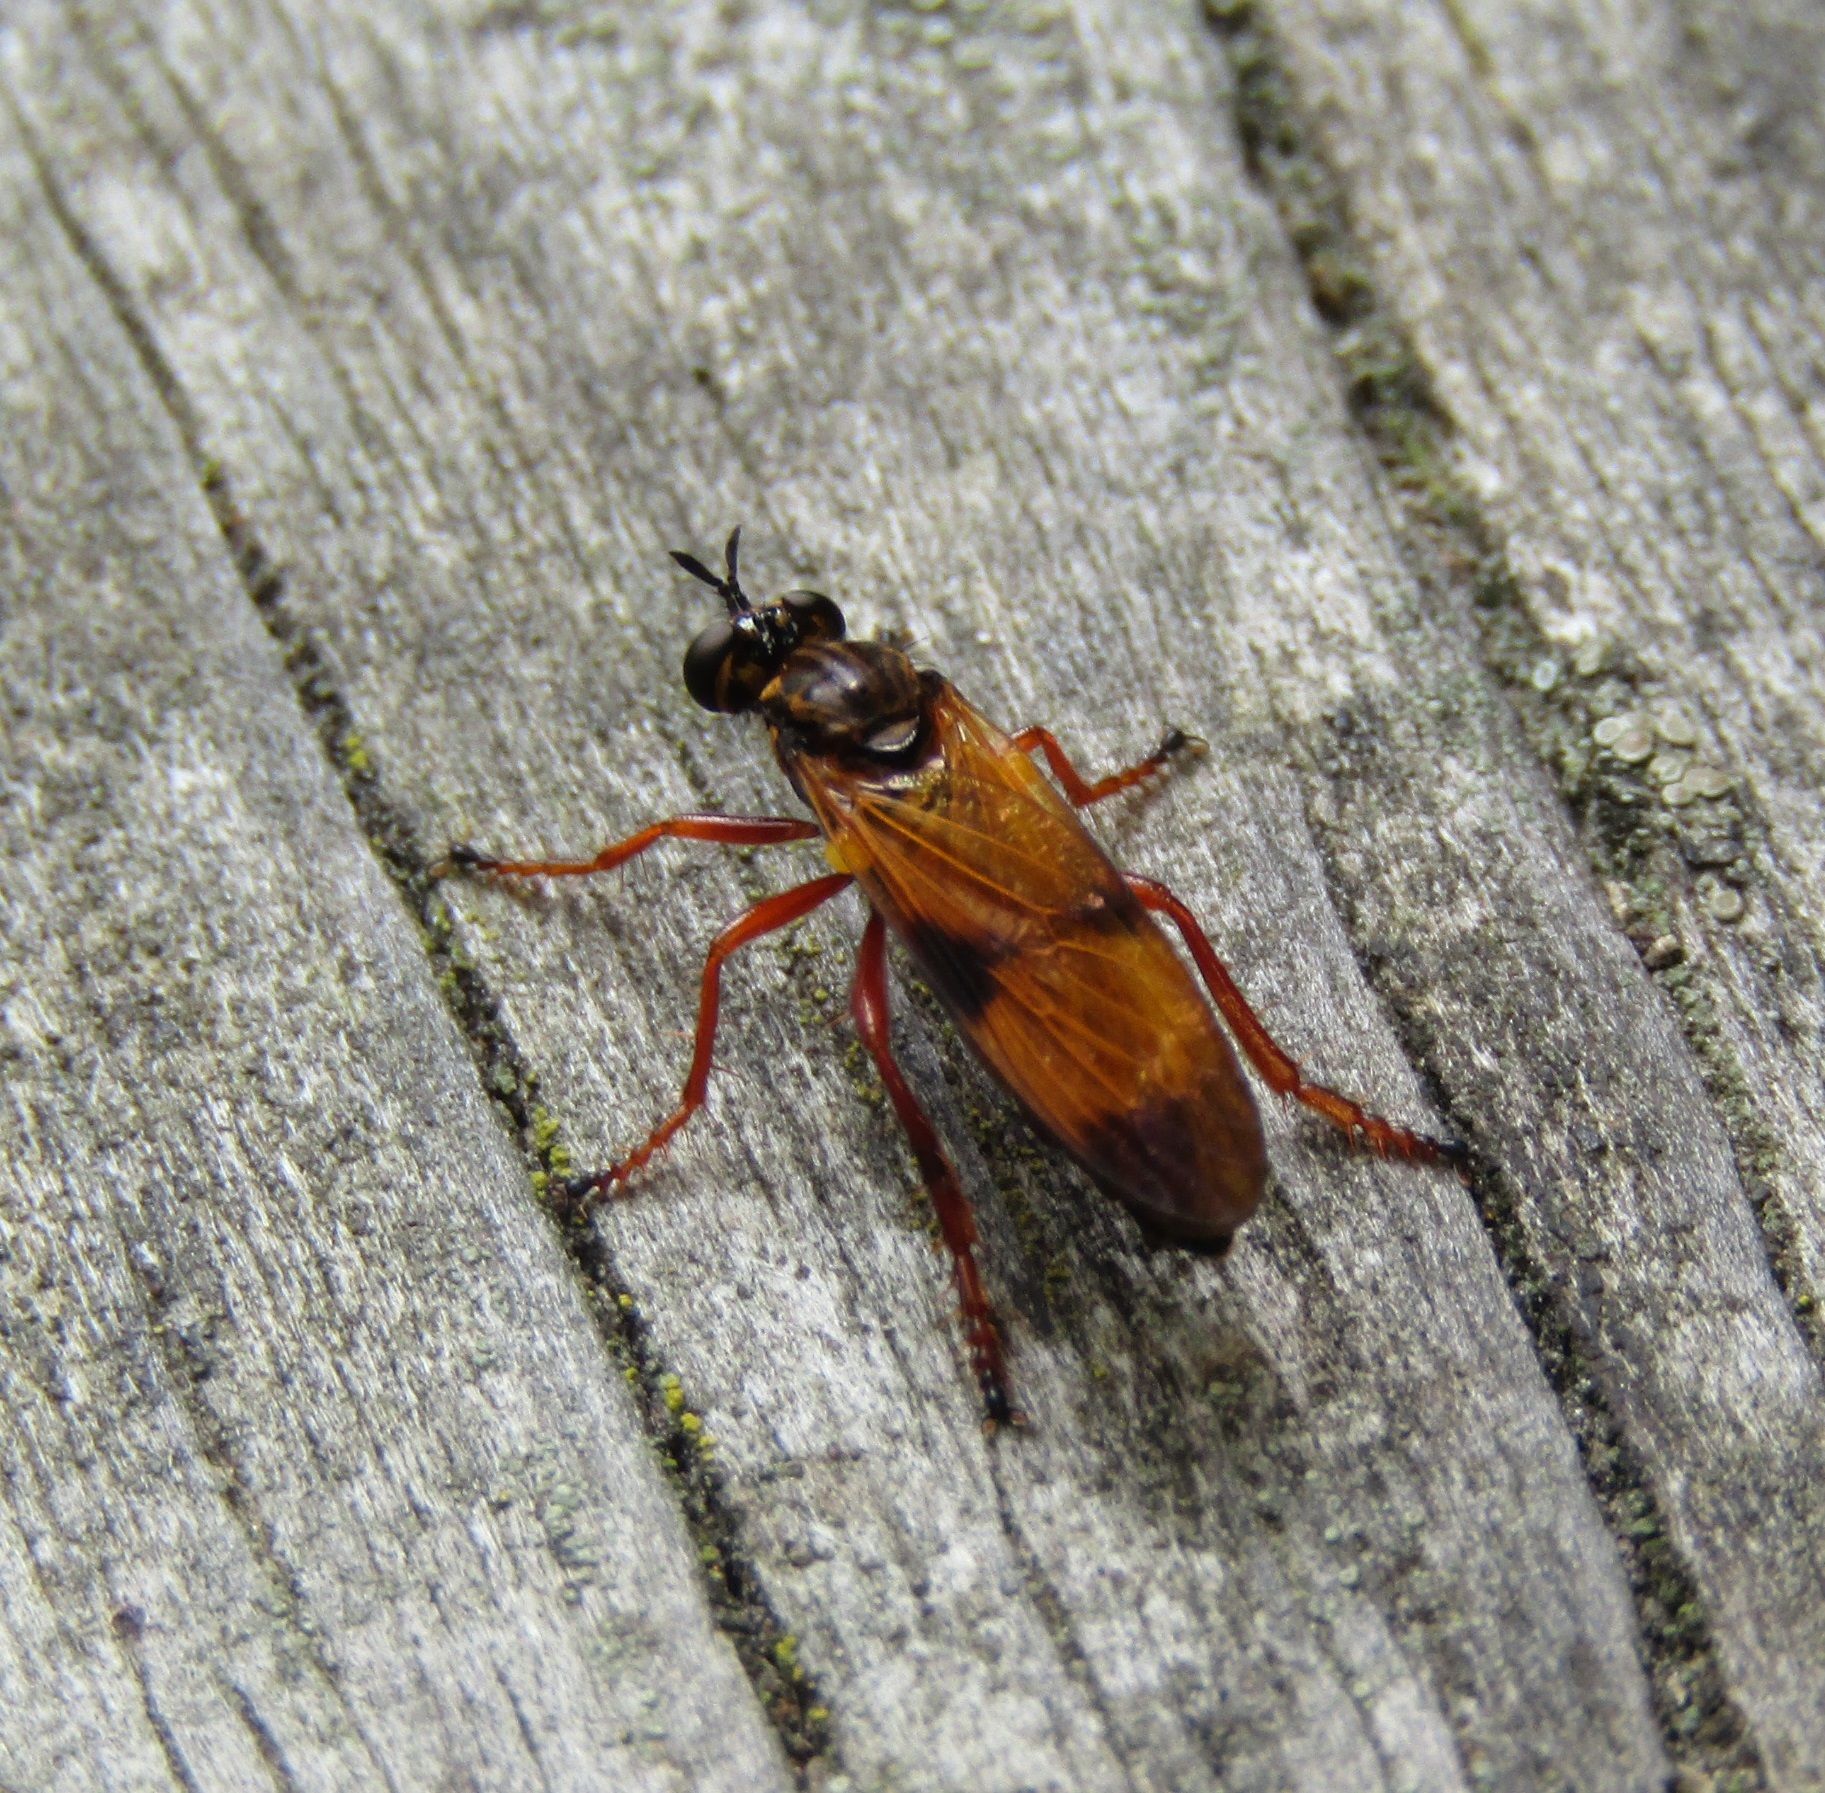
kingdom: Animalia
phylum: Arthropoda
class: Insecta
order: Diptera
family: Asilidae
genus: Saropogon
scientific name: Saropogon extenuatus
